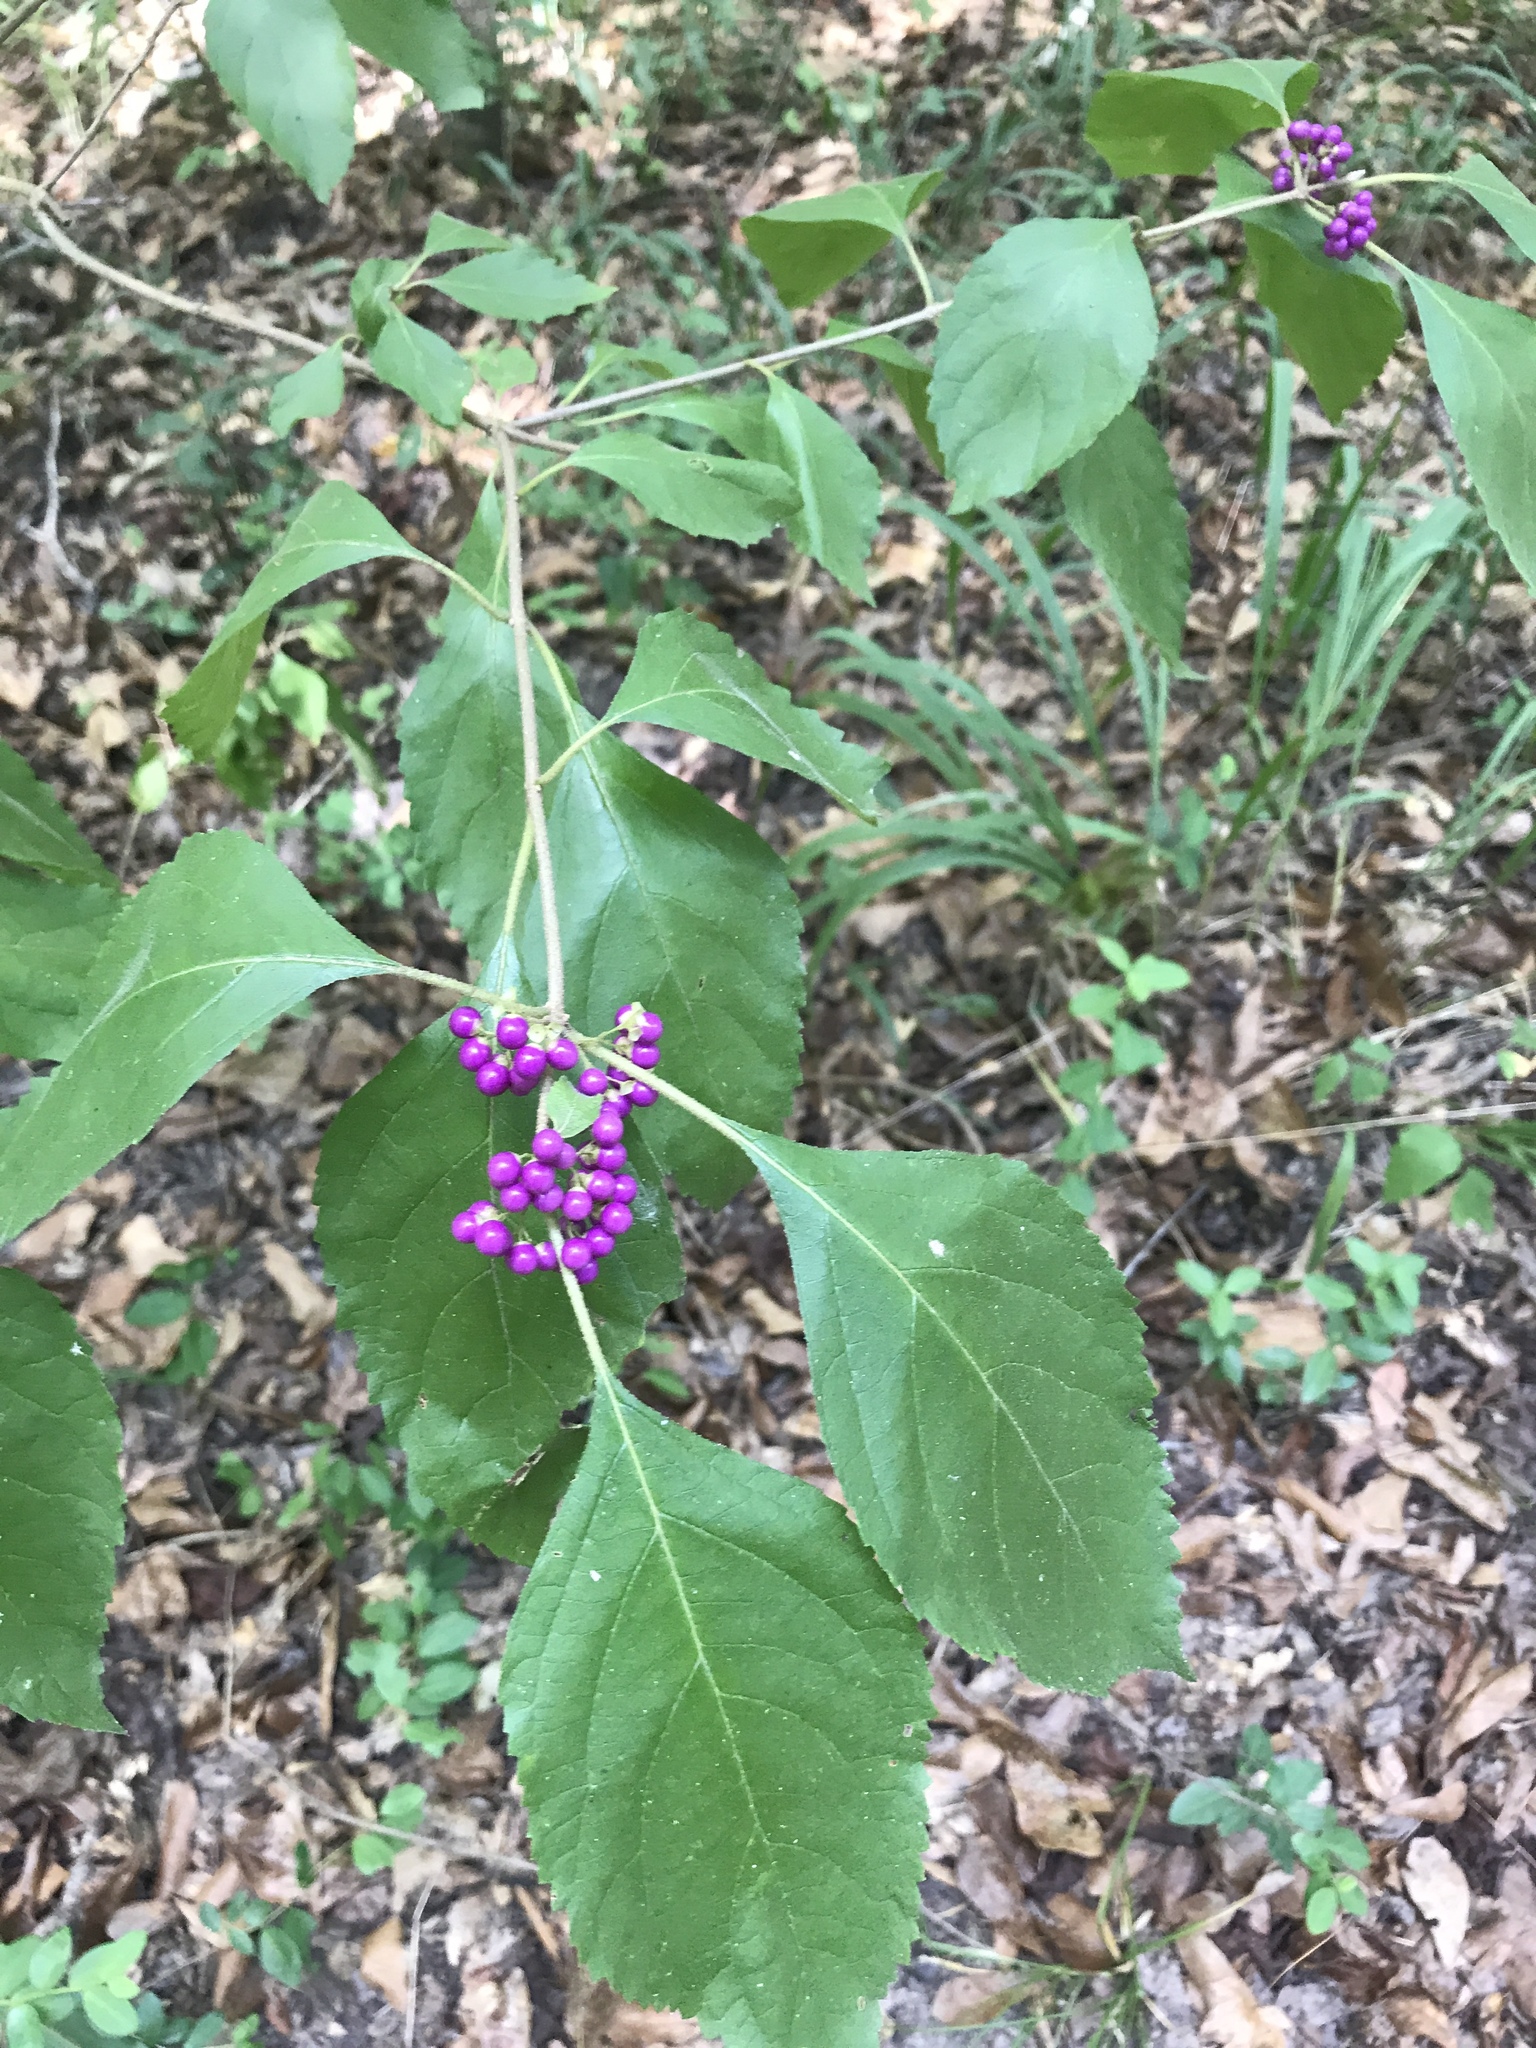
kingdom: Plantae
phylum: Tracheophyta
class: Magnoliopsida
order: Lamiales
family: Lamiaceae
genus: Callicarpa
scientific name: Callicarpa americana
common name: American beautyberry
